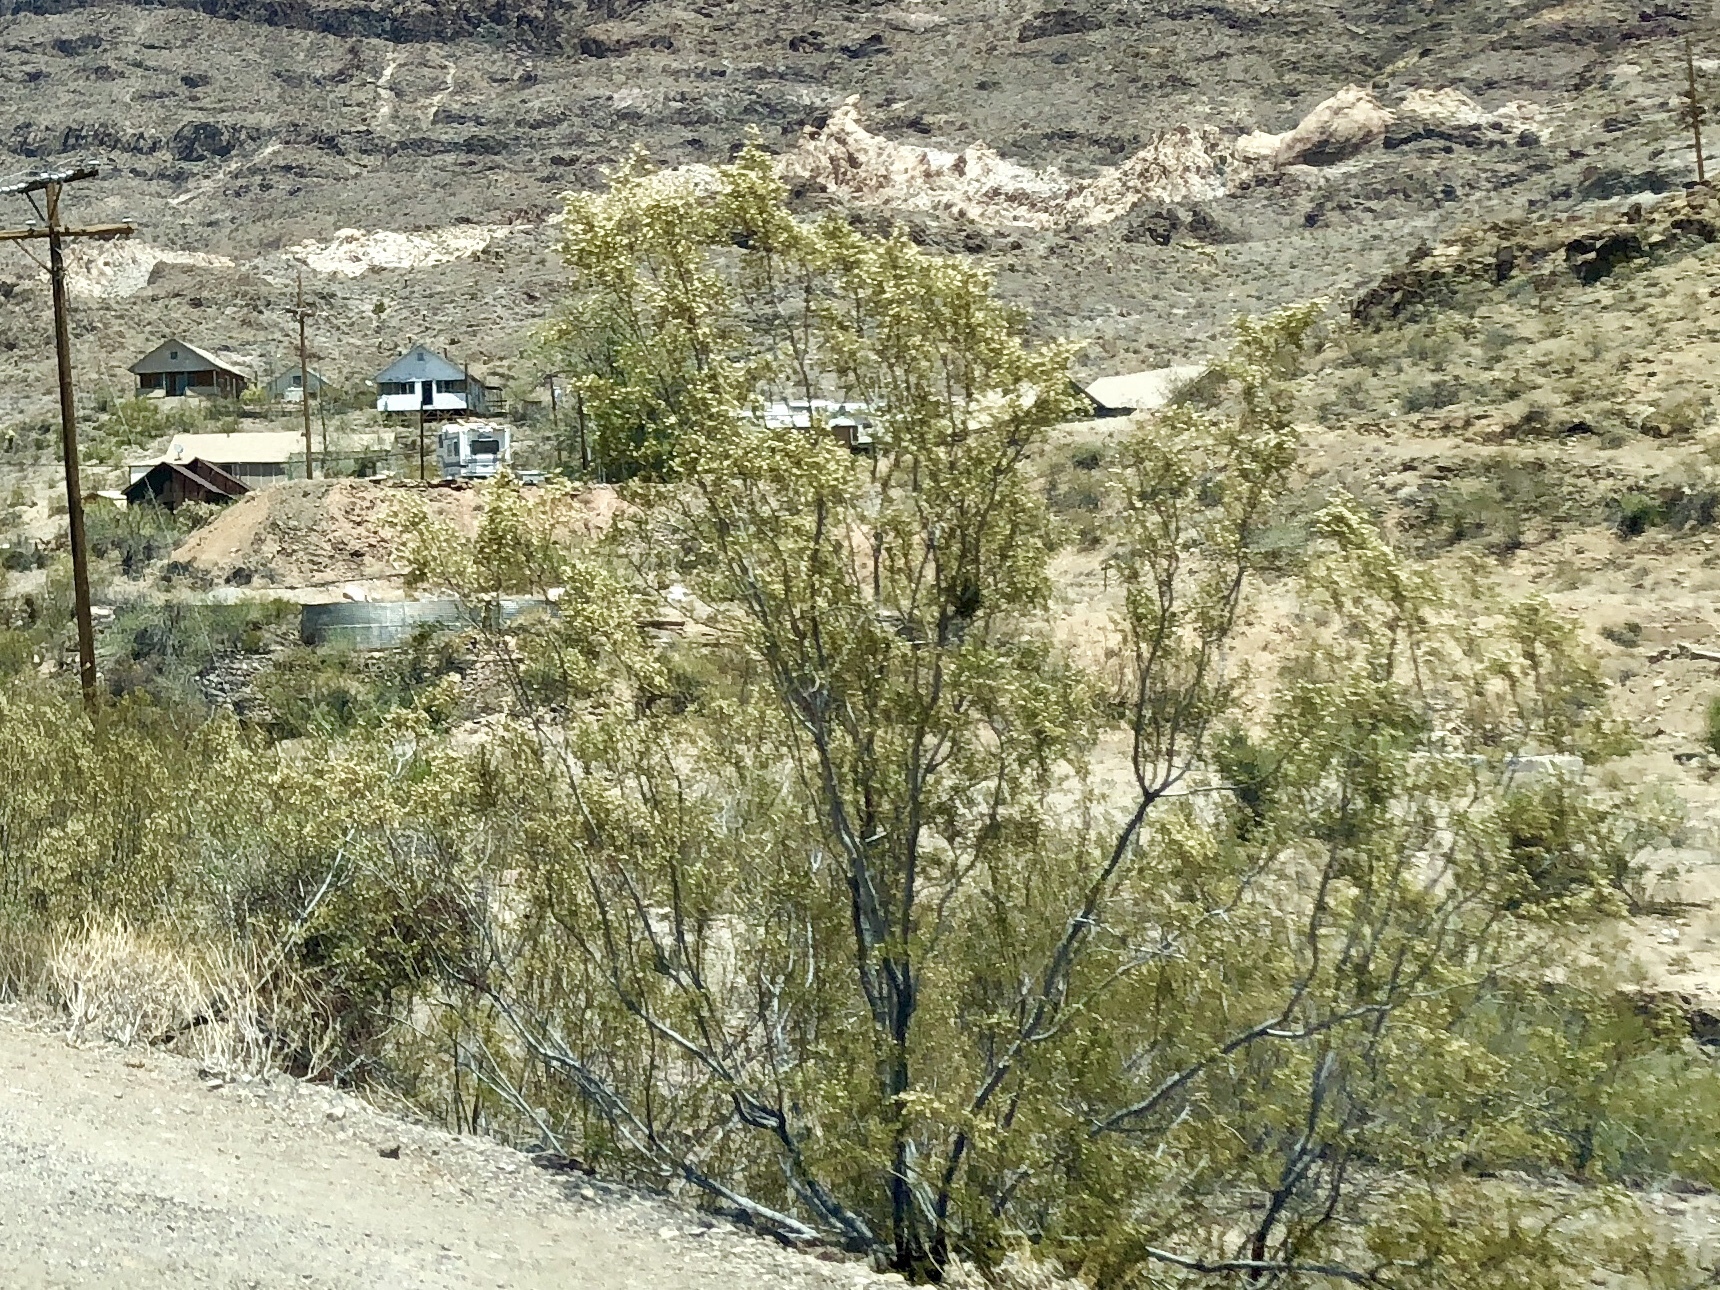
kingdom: Plantae
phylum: Tracheophyta
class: Magnoliopsida
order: Zygophyllales
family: Zygophyllaceae
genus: Larrea
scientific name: Larrea tridentata
